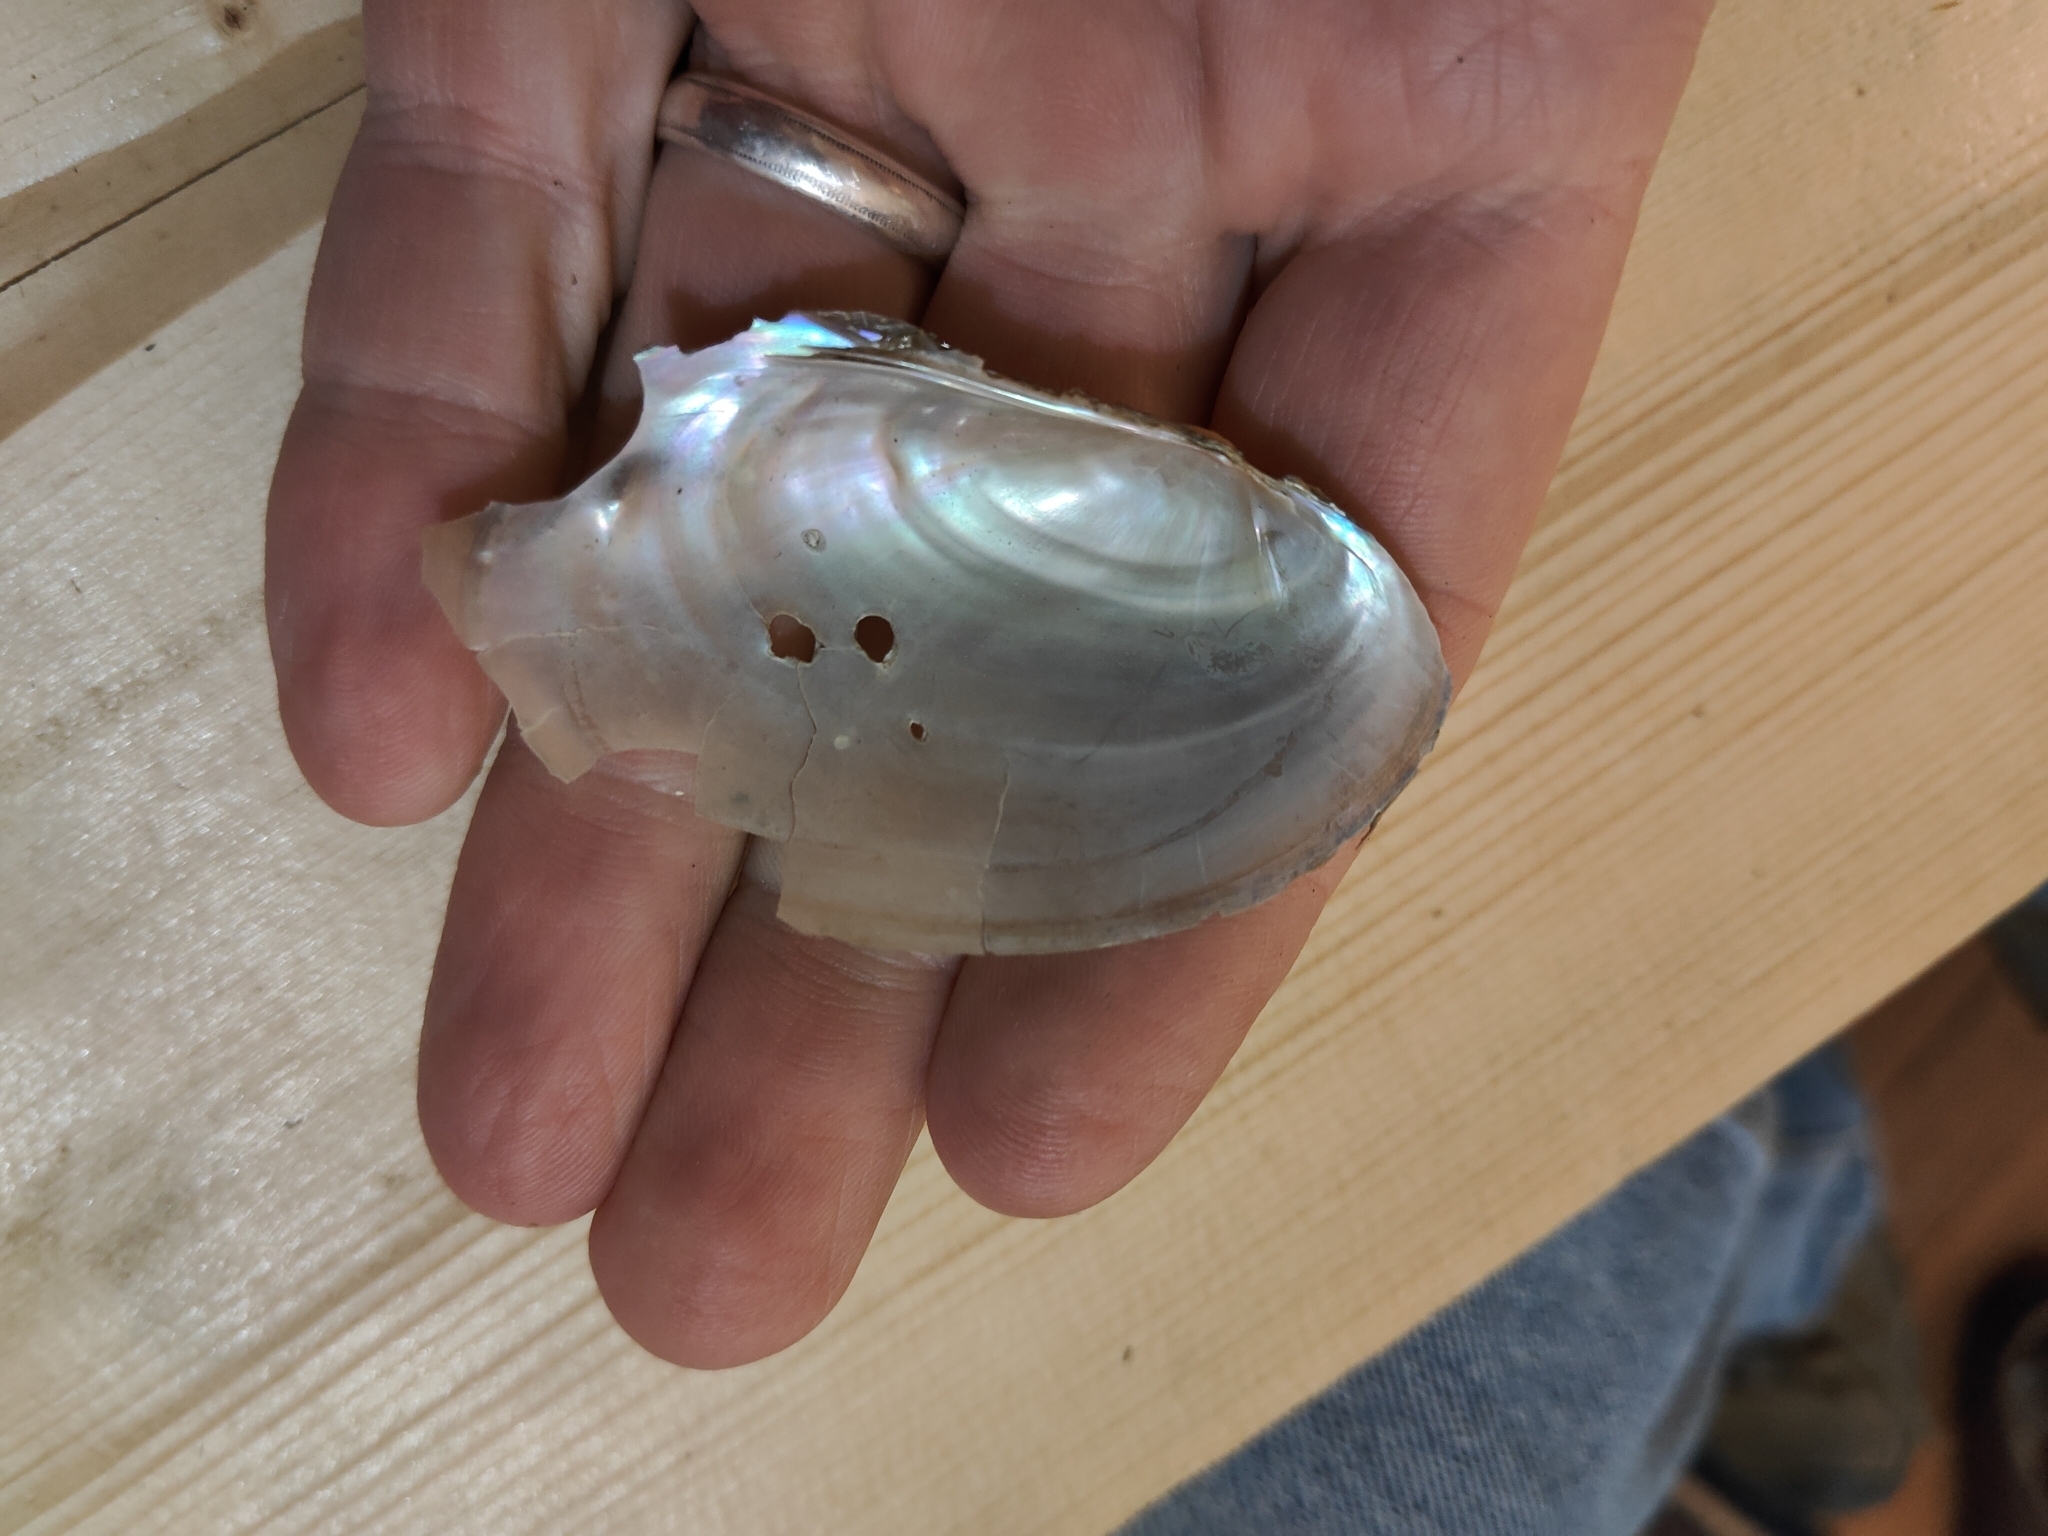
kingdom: Animalia
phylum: Mollusca
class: Bivalvia
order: Unionida
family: Unionidae
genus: Potamilus
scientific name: Potamilus fragilis
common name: Fragile papershell
